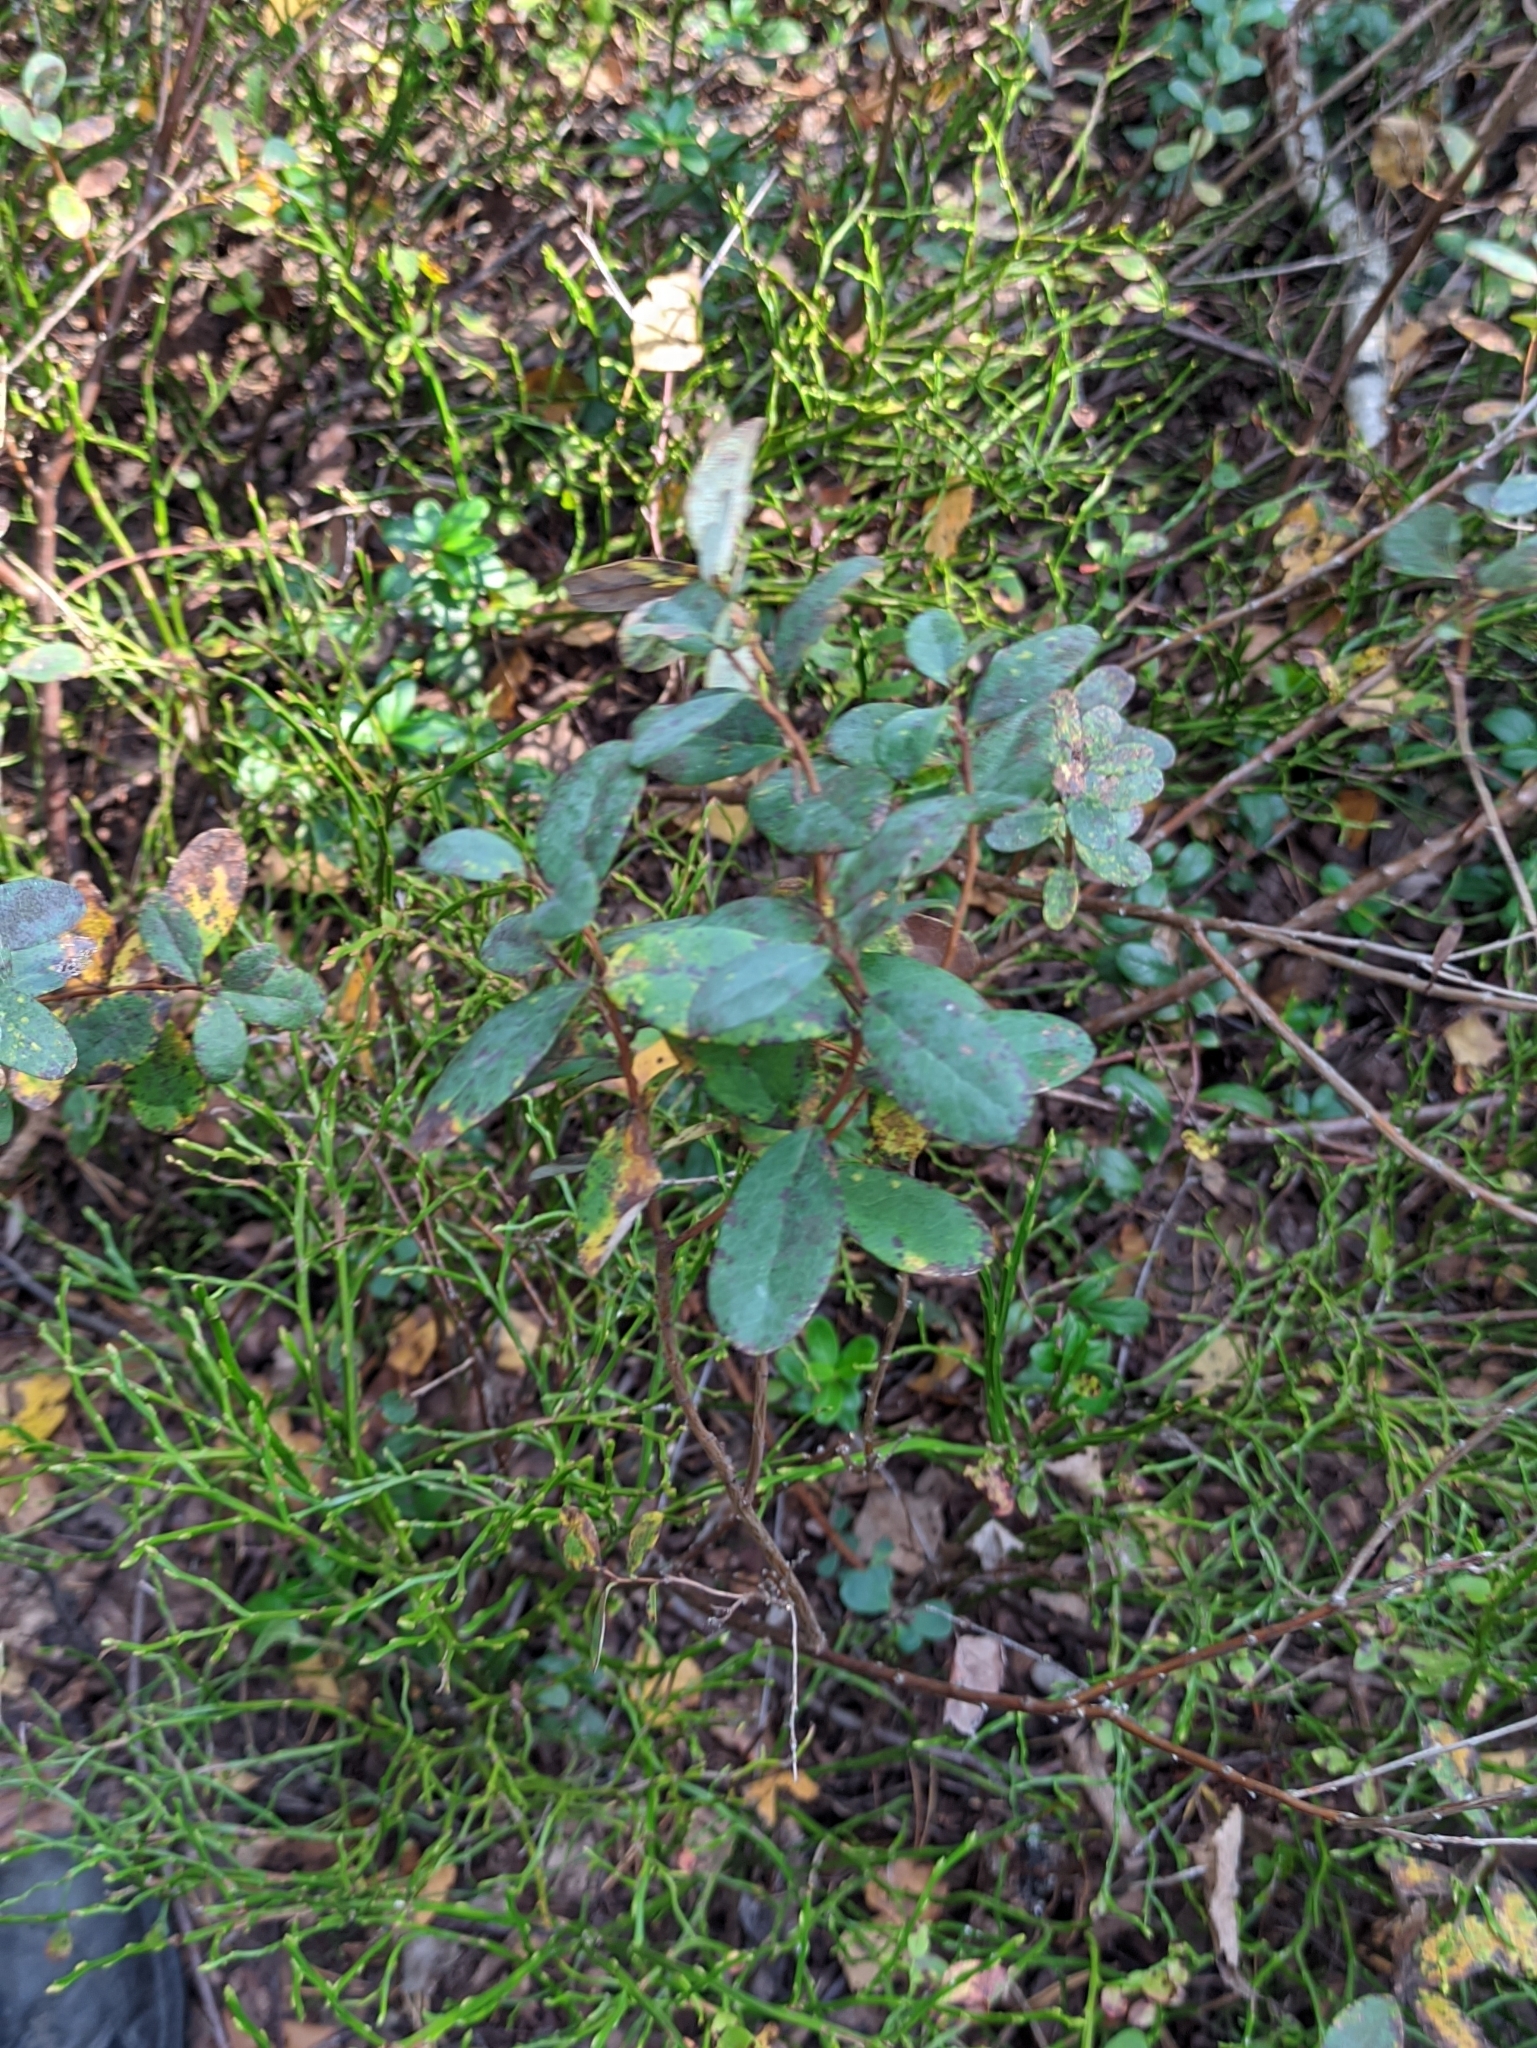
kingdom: Plantae
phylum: Tracheophyta
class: Magnoliopsida
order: Ericales
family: Ericaceae
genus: Vaccinium
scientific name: Vaccinium uliginosum
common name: Bog bilberry
